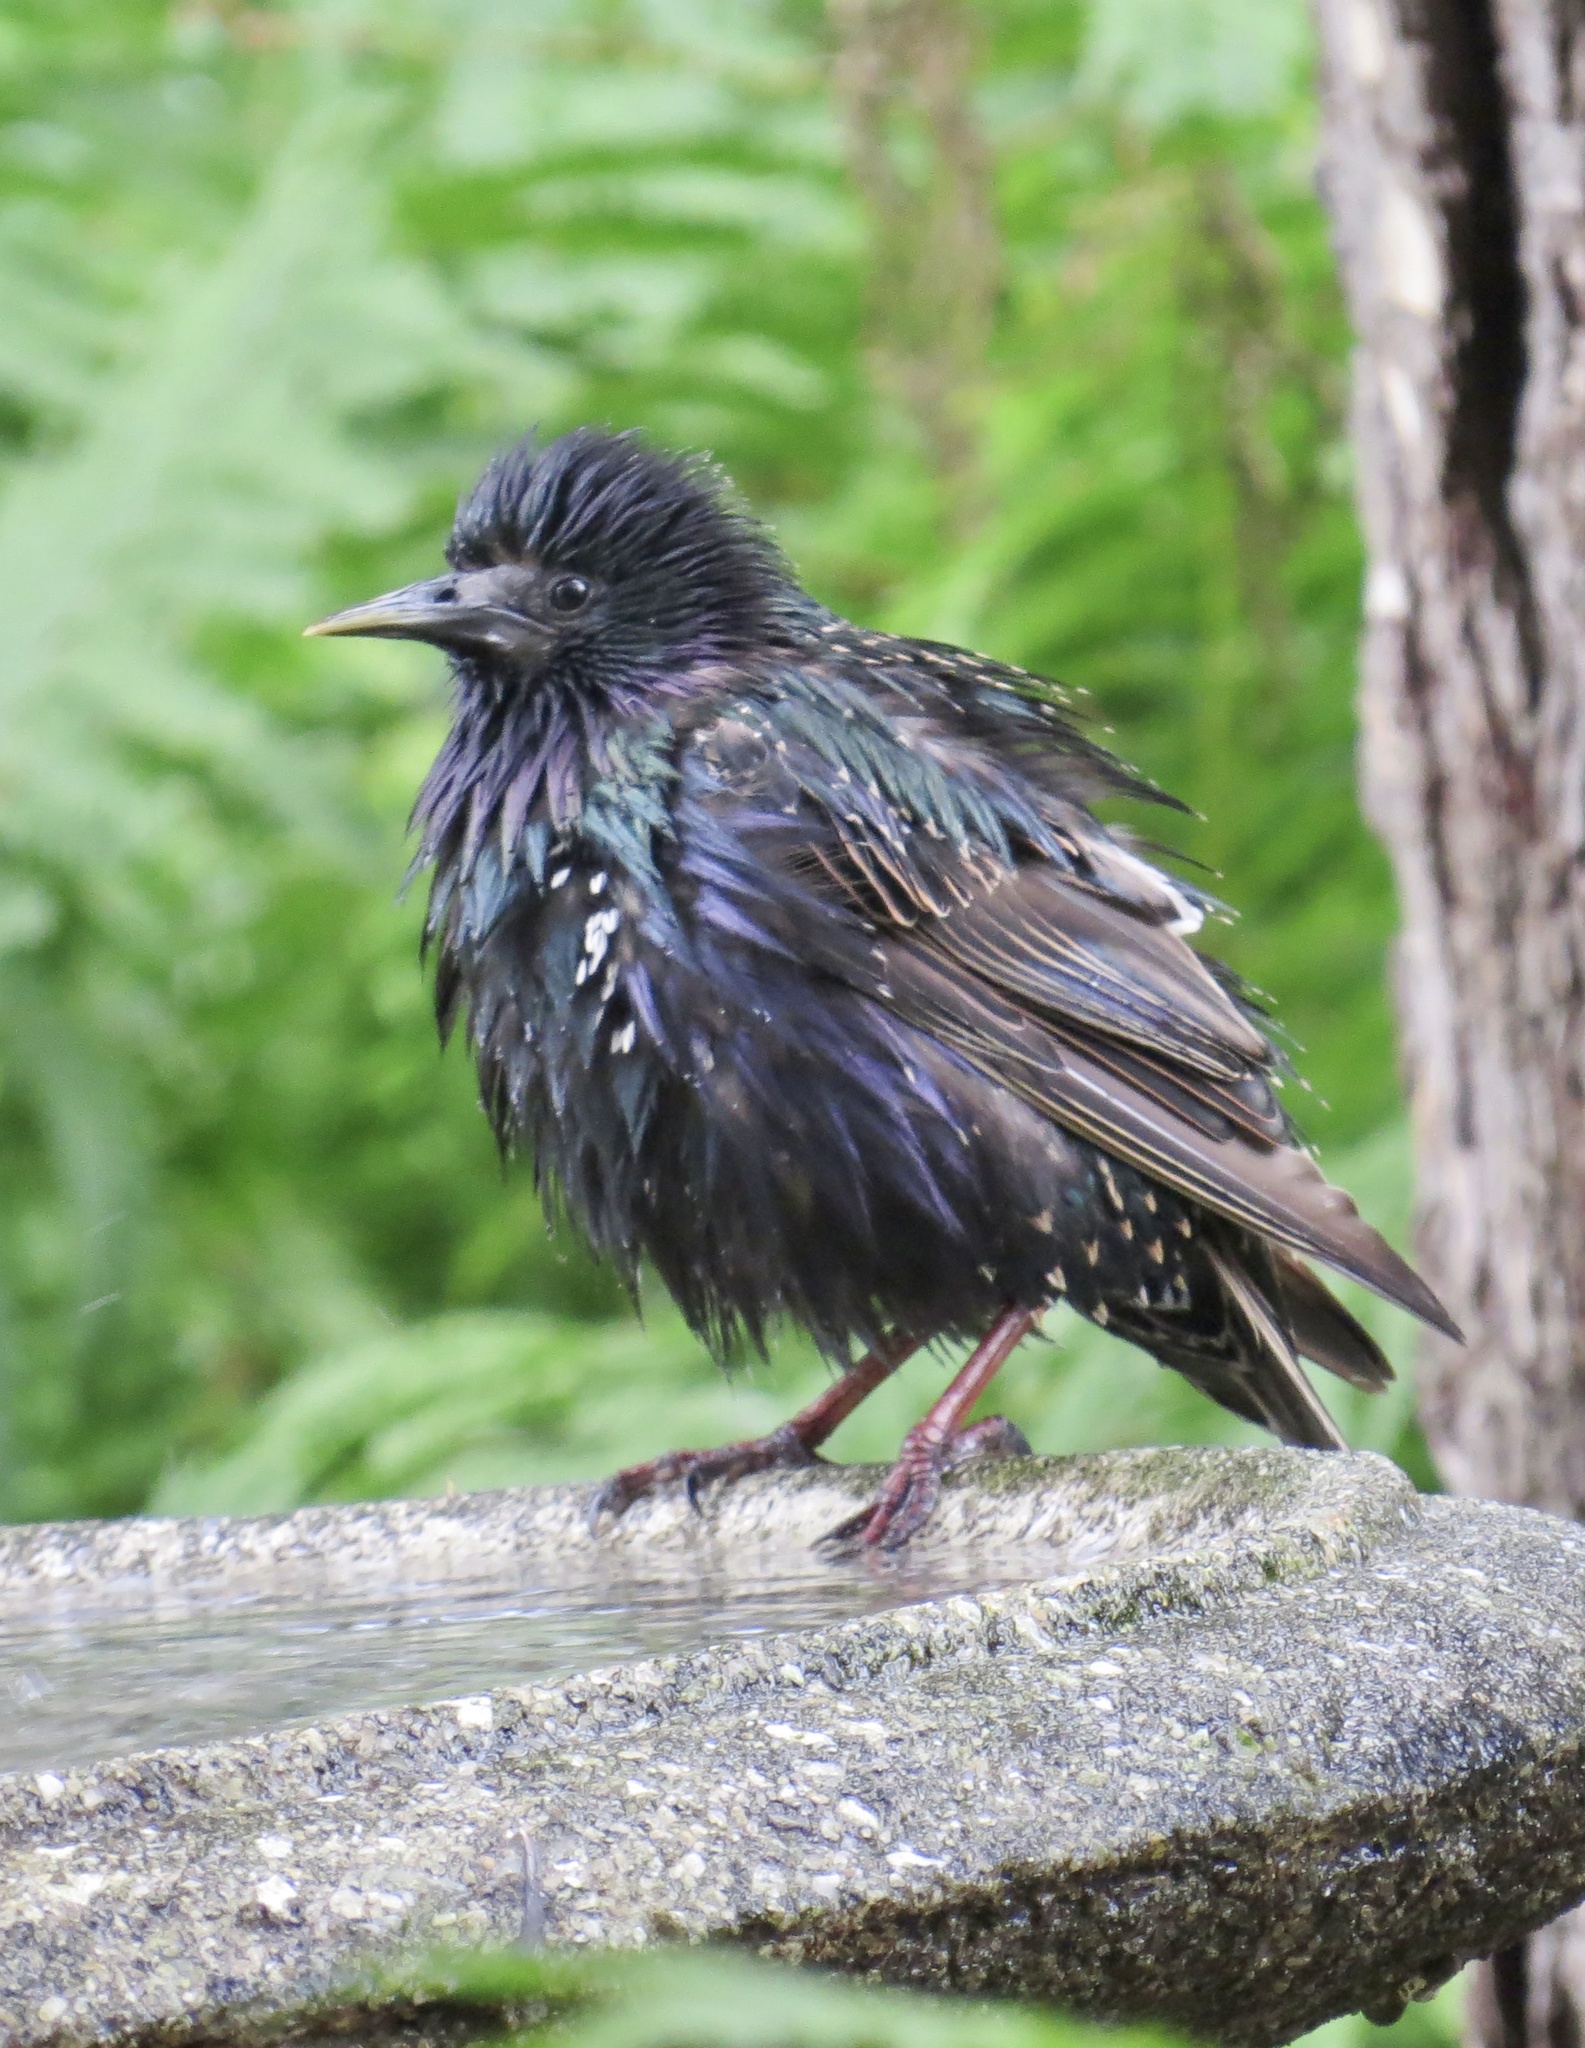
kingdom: Animalia
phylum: Chordata
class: Aves
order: Passeriformes
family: Sturnidae
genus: Sturnus
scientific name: Sturnus vulgaris
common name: Common starling
